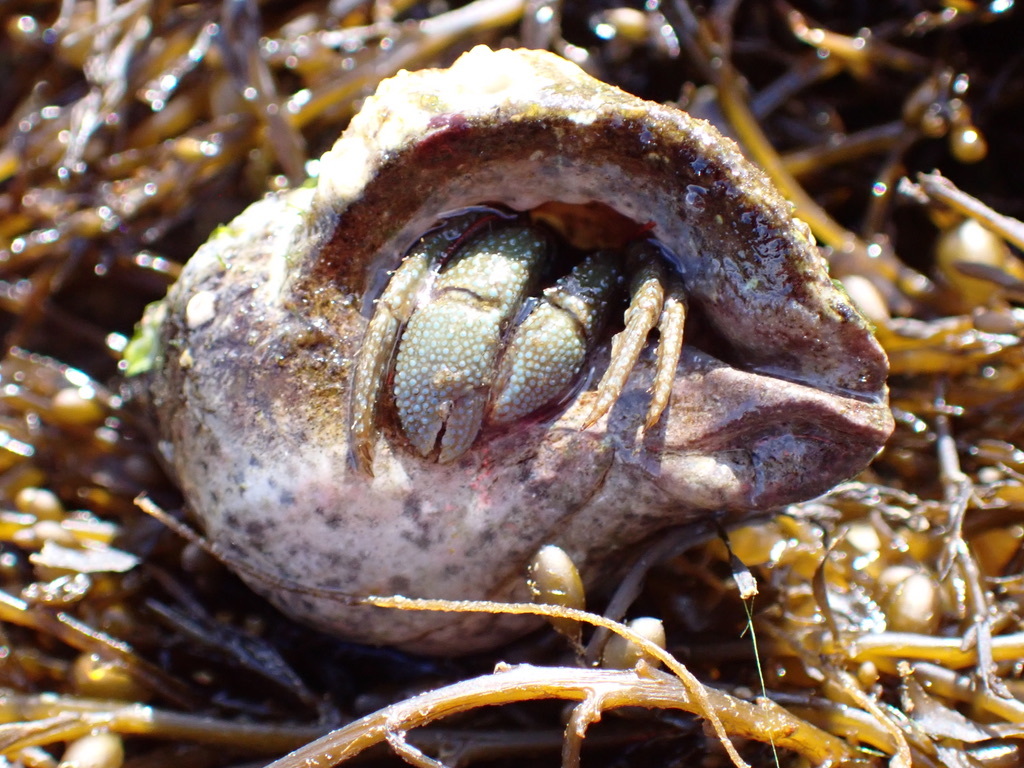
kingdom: Animalia
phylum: Arthropoda
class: Malacostraca
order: Decapoda
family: Paguridae
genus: Pagurus
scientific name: Pagurus granosimanus
